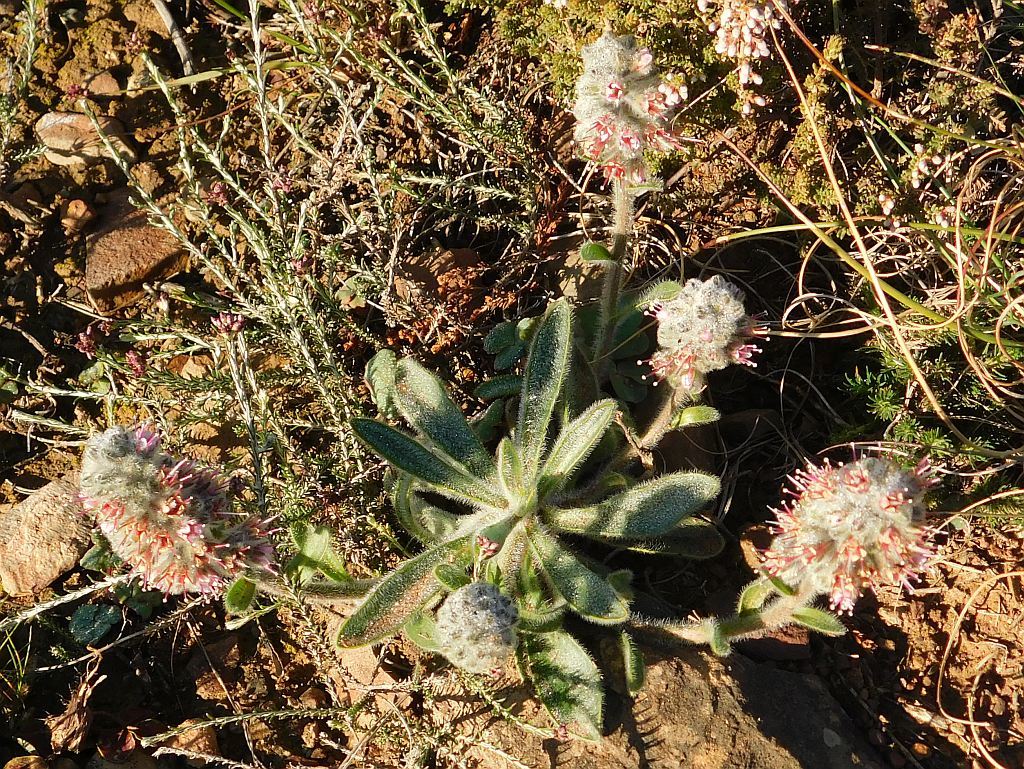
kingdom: Plantae
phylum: Tracheophyta
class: Magnoliopsida
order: Boraginales
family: Boraginaceae
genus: Lobostemon
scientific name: Lobostemon ecklonianus
